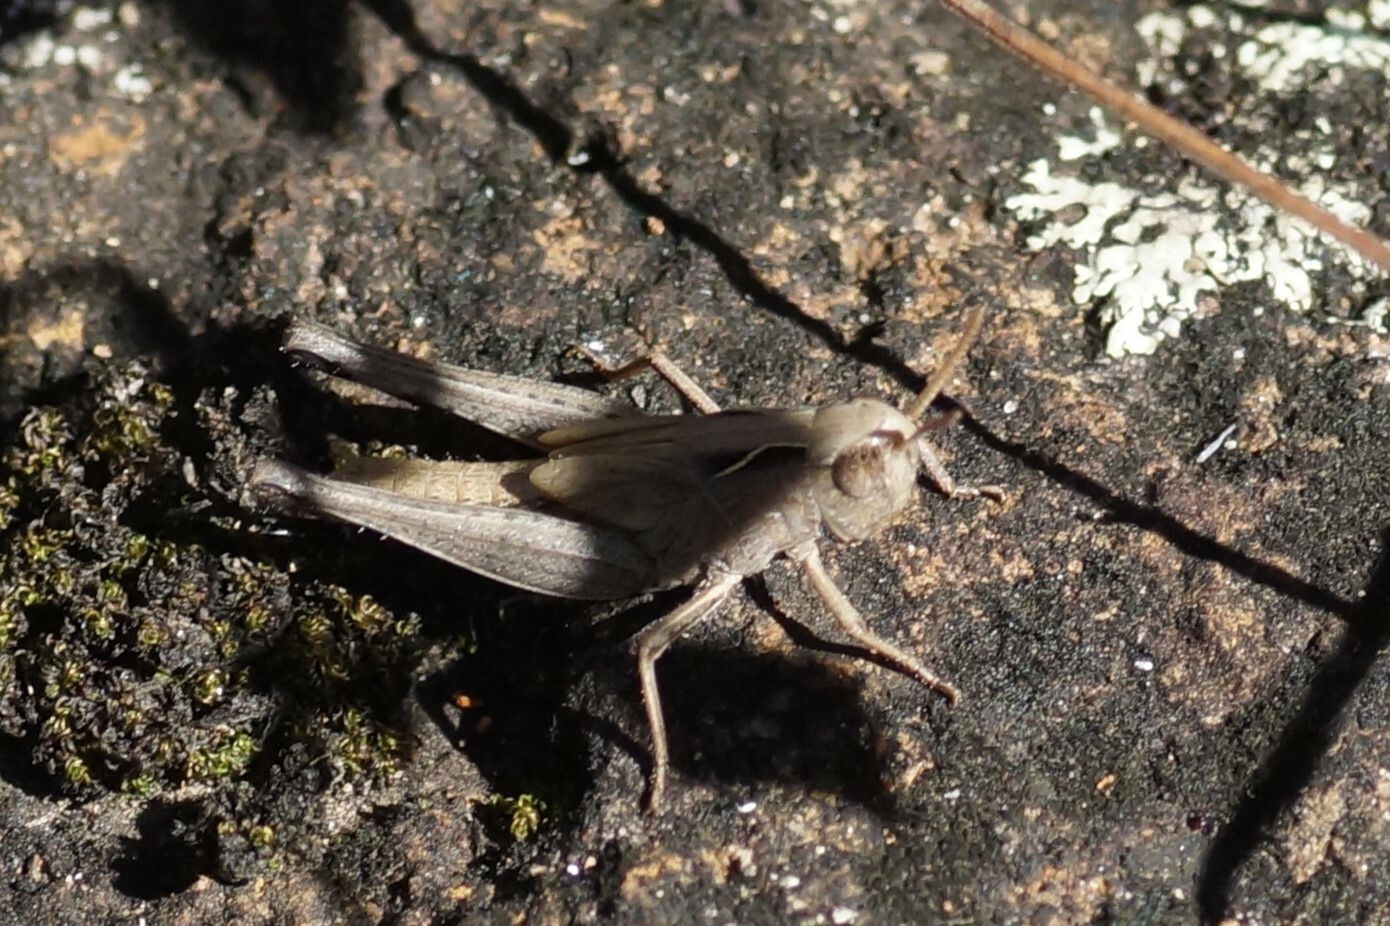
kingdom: Animalia
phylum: Arthropoda
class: Insecta
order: Orthoptera
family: Acrididae
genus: Aiolopus
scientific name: Aiolopus thalassinus
